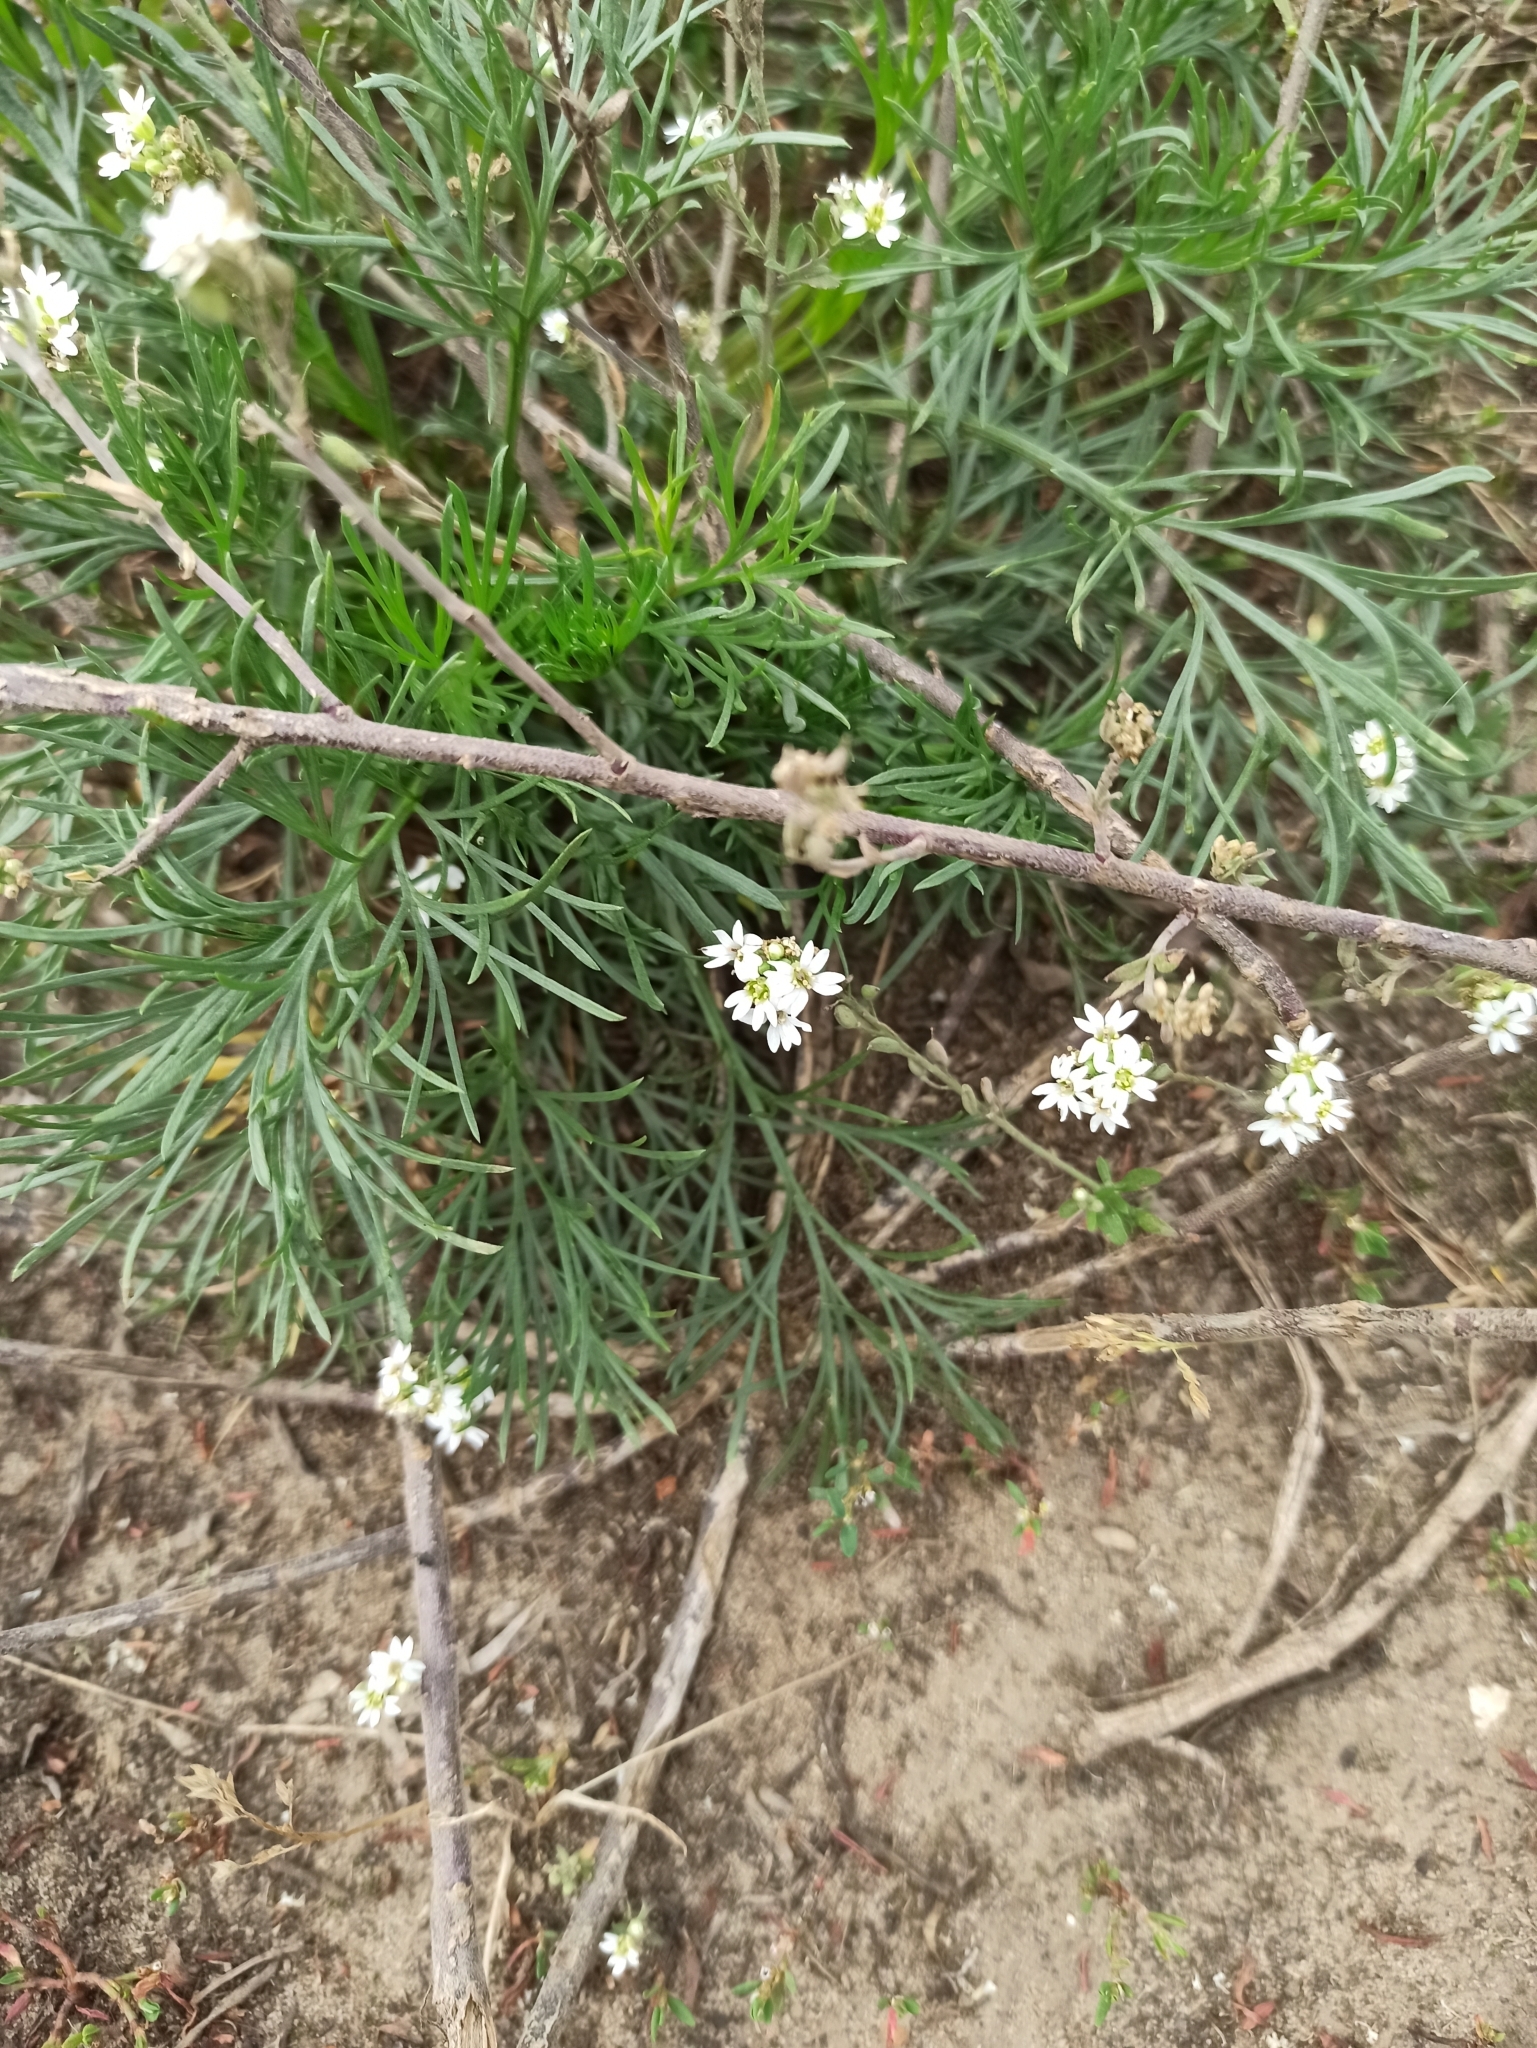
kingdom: Plantae
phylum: Tracheophyta
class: Magnoliopsida
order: Brassicales
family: Brassicaceae
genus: Berteroa
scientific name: Berteroa incana
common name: Hoary alison
